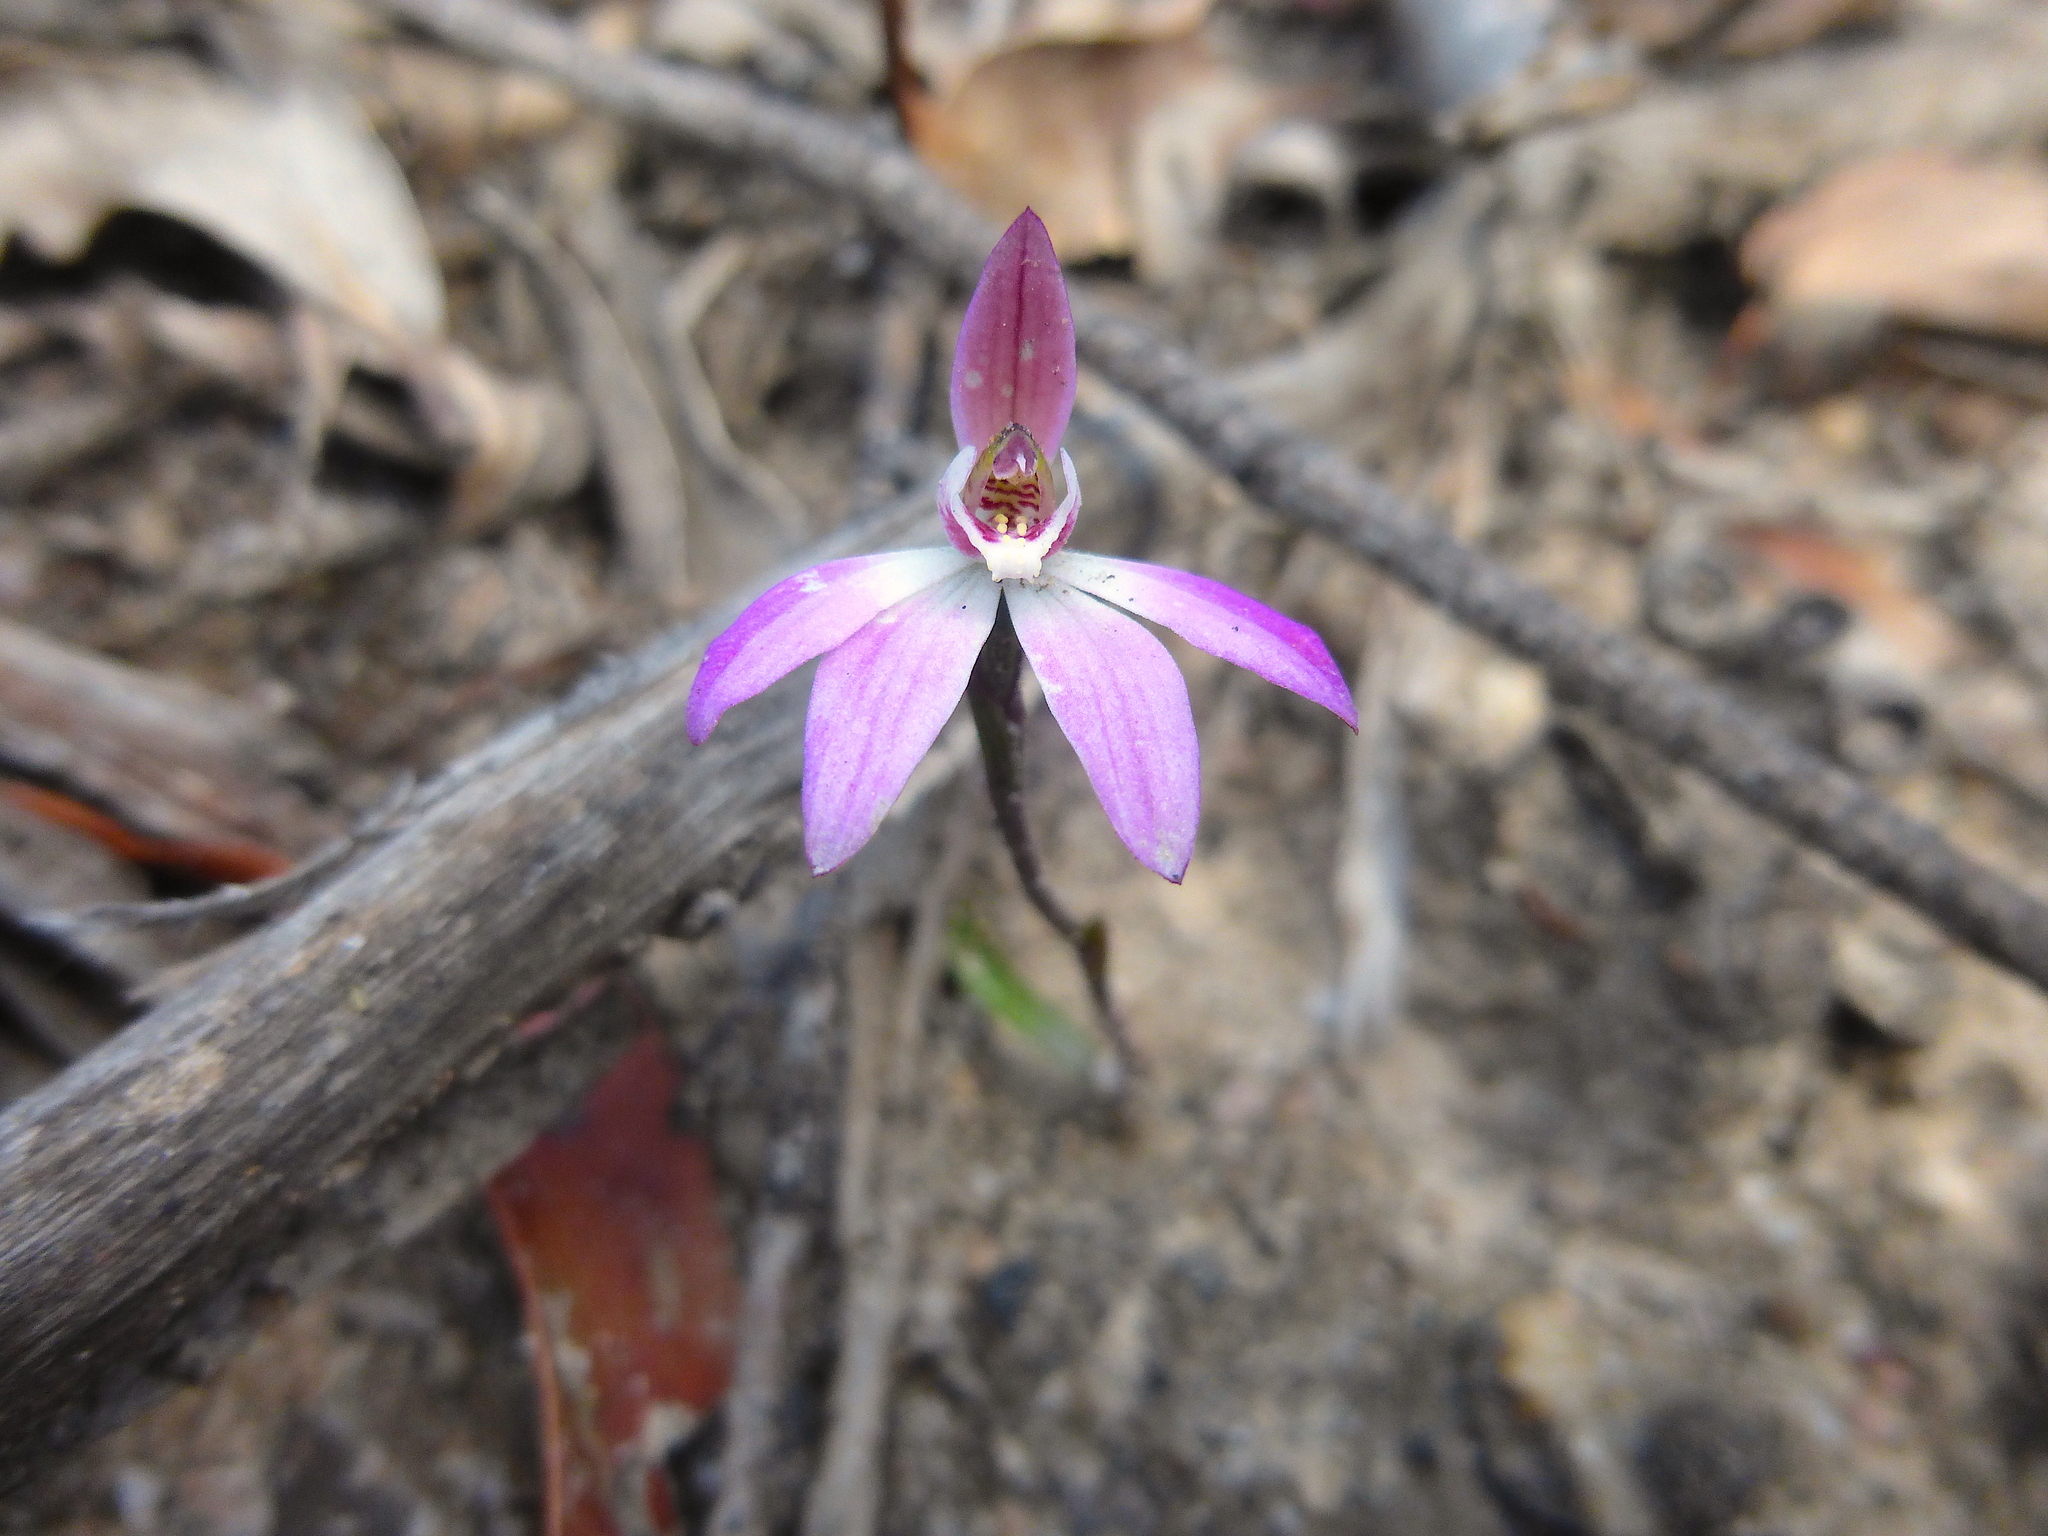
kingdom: Plantae
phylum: Tracheophyta
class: Liliopsida
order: Asparagales
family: Orchidaceae
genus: Caladenia
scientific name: Caladenia fuscata
